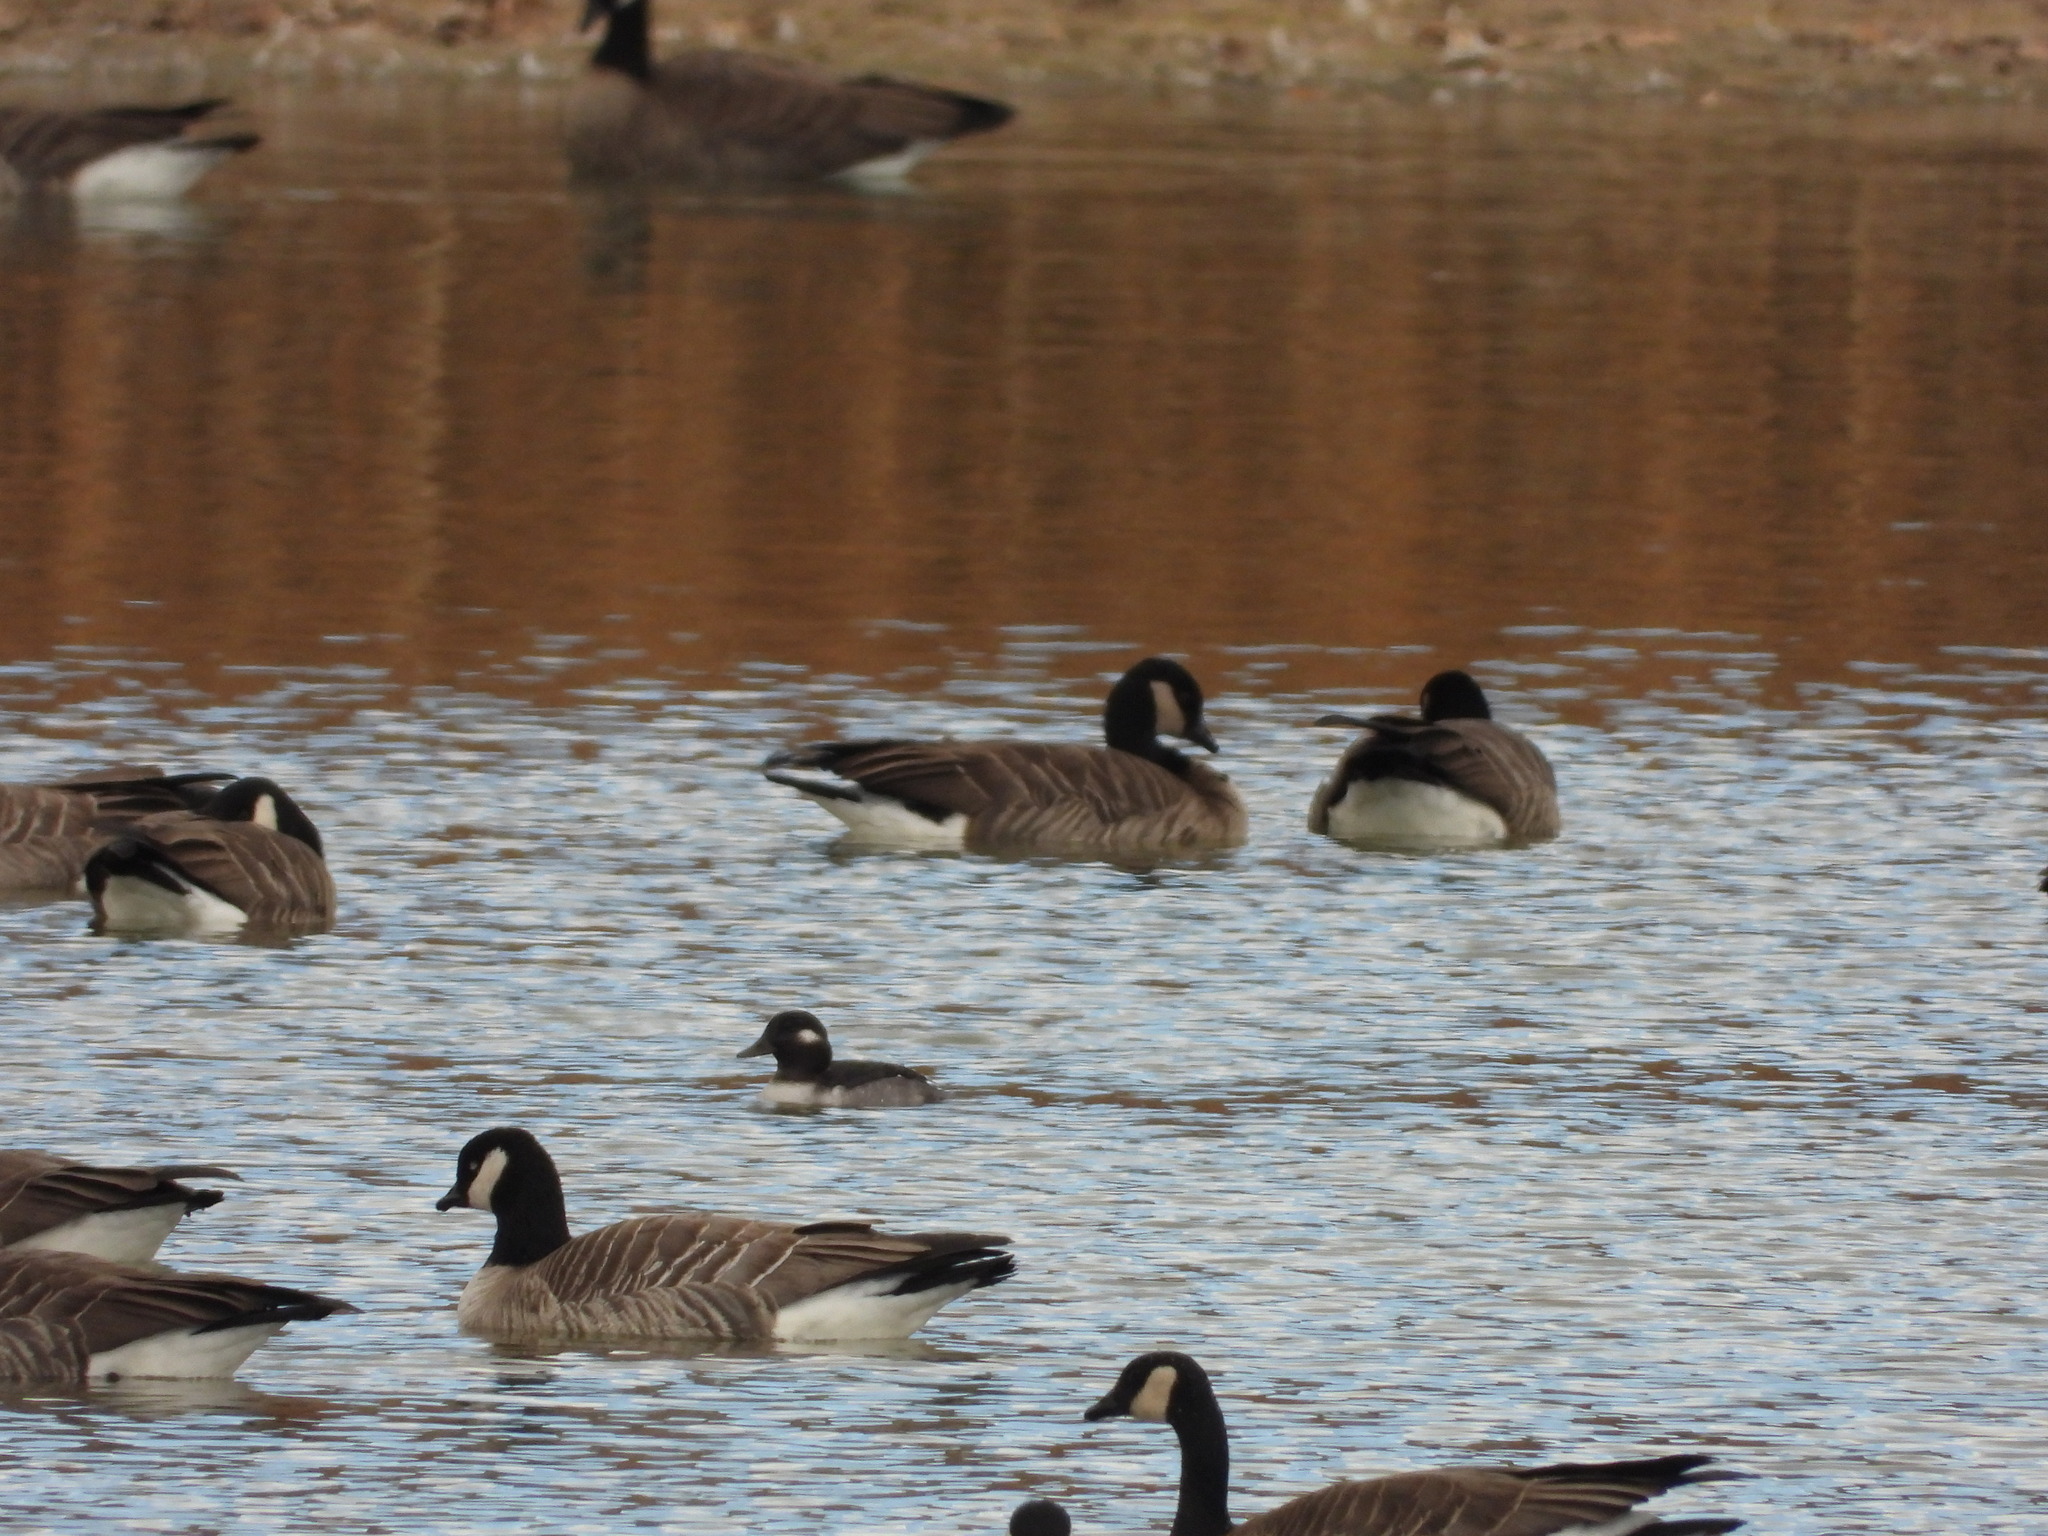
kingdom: Animalia
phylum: Chordata
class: Aves
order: Anseriformes
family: Anatidae
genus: Bucephala
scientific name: Bucephala albeola
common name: Bufflehead
